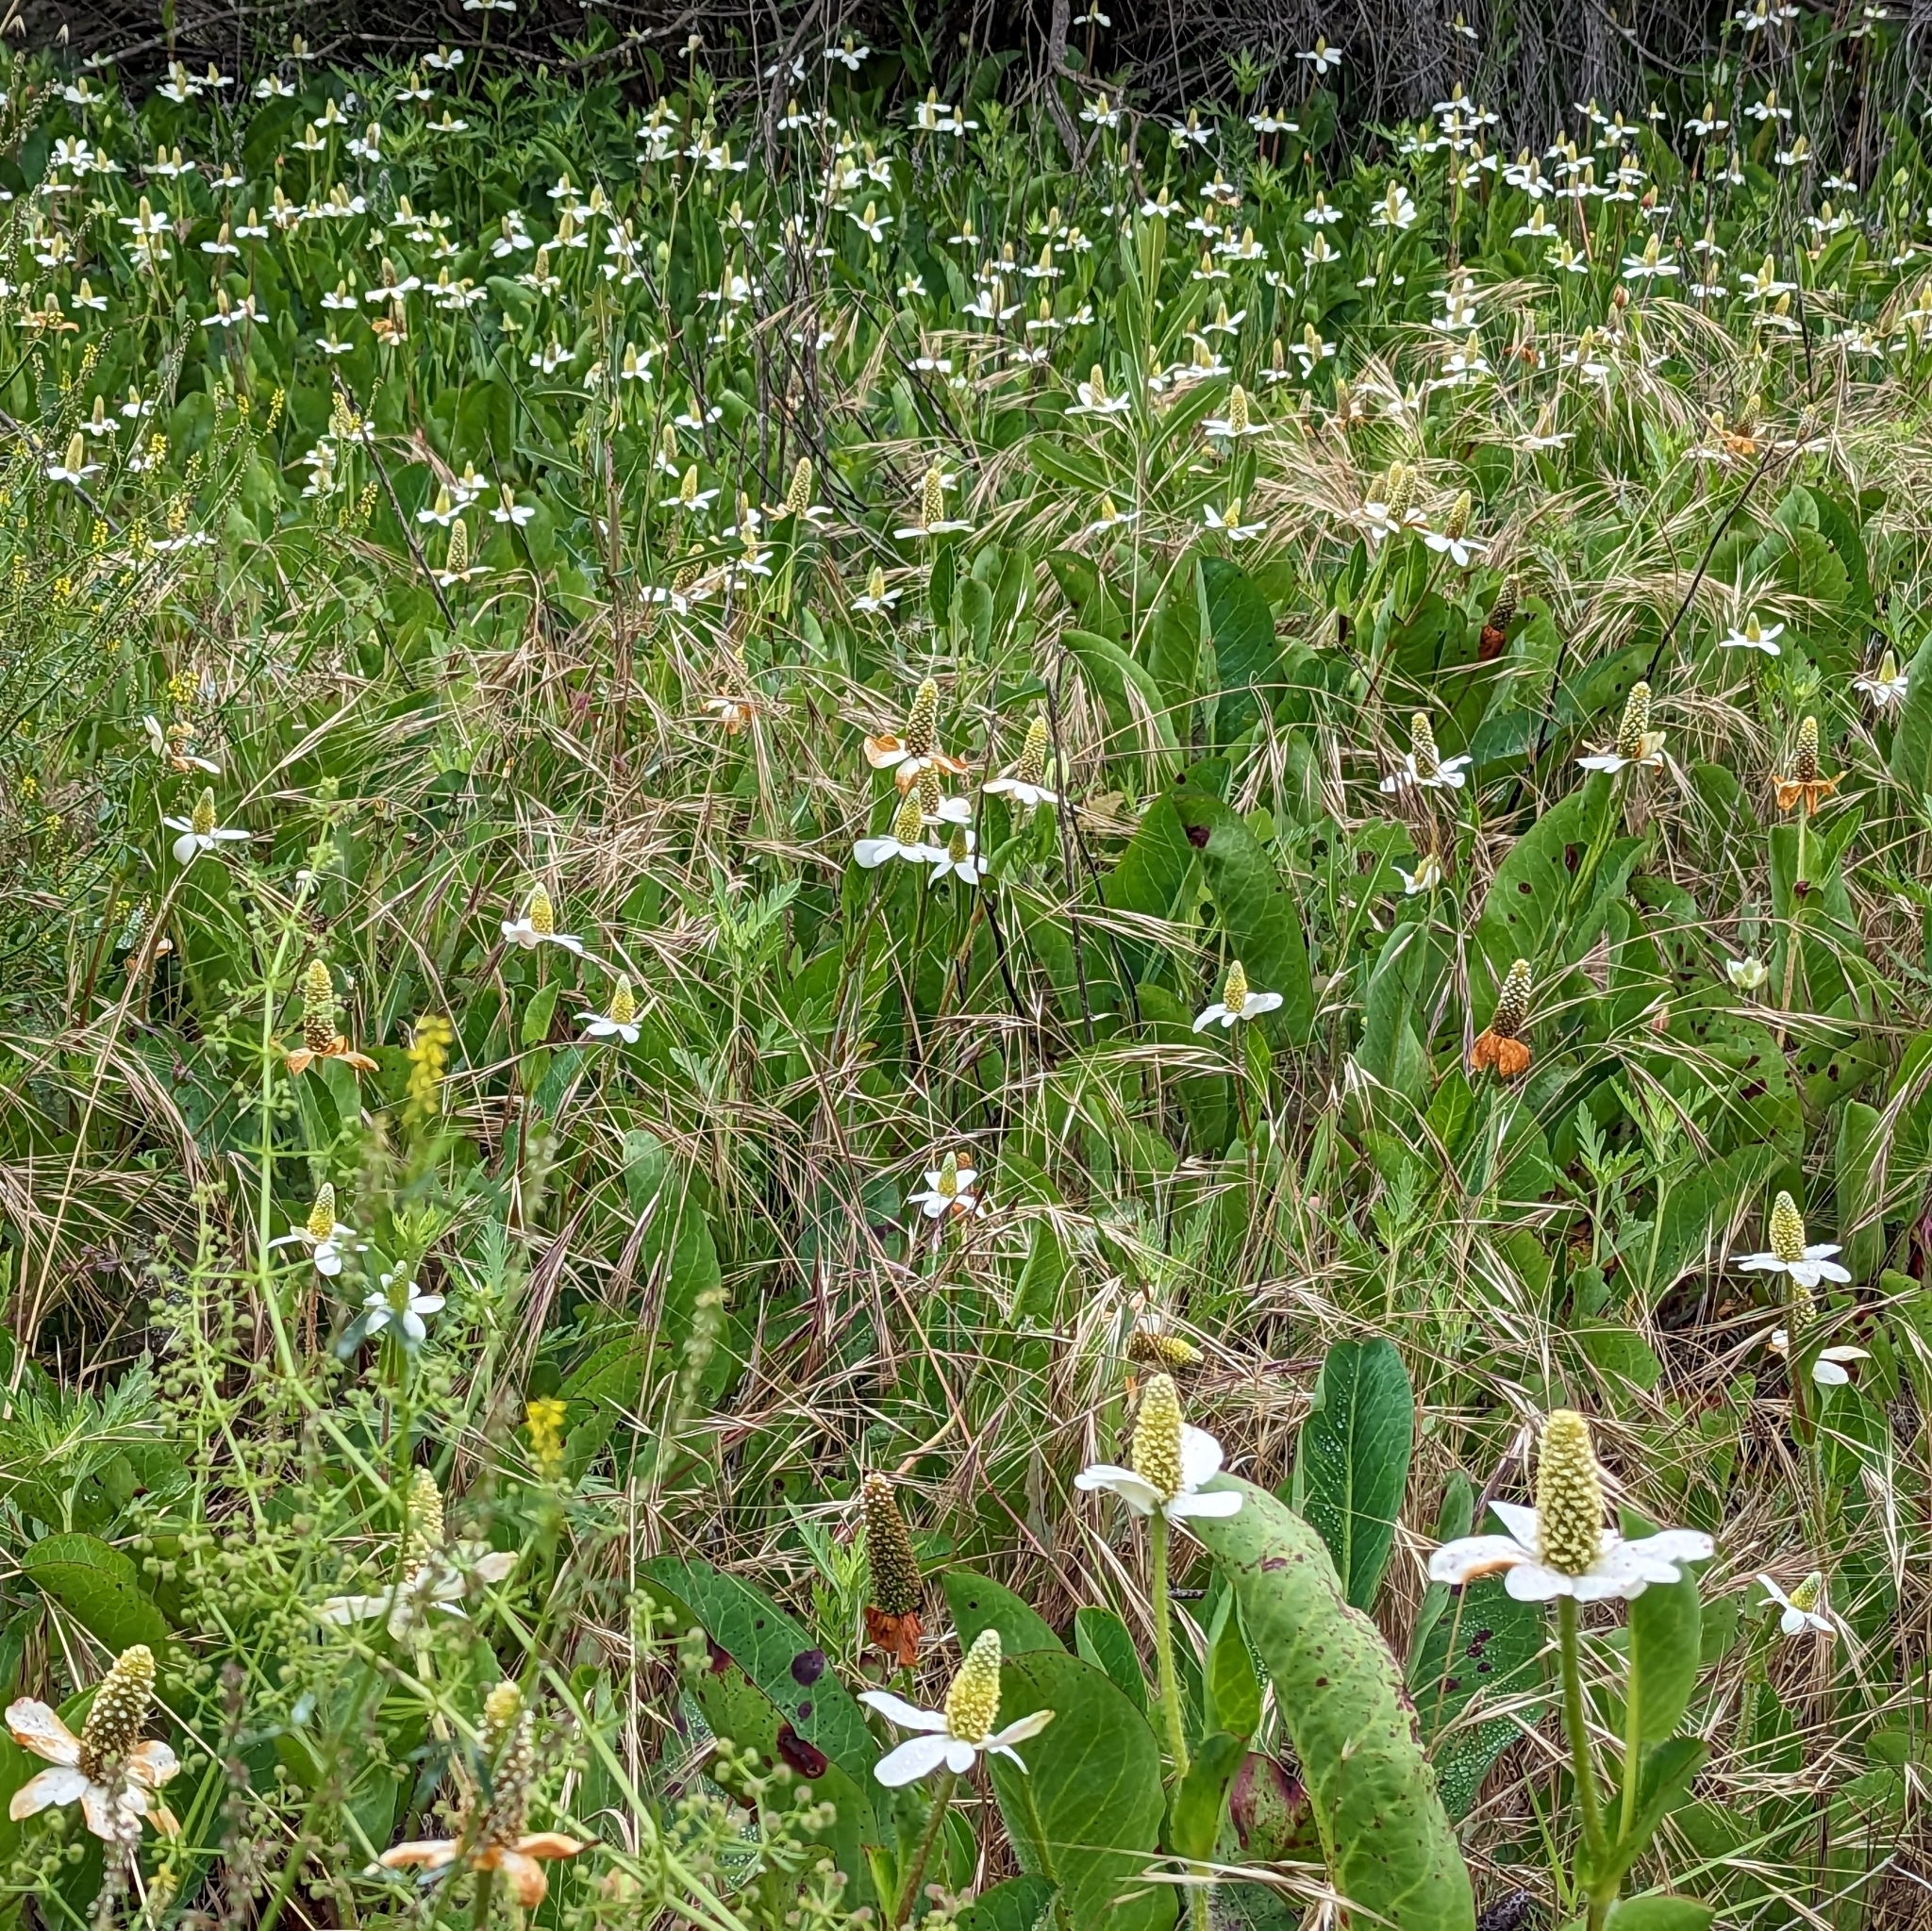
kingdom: Plantae
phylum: Tracheophyta
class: Magnoliopsida
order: Piperales
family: Saururaceae
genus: Anemopsis
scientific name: Anemopsis californica
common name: Apache-beads
